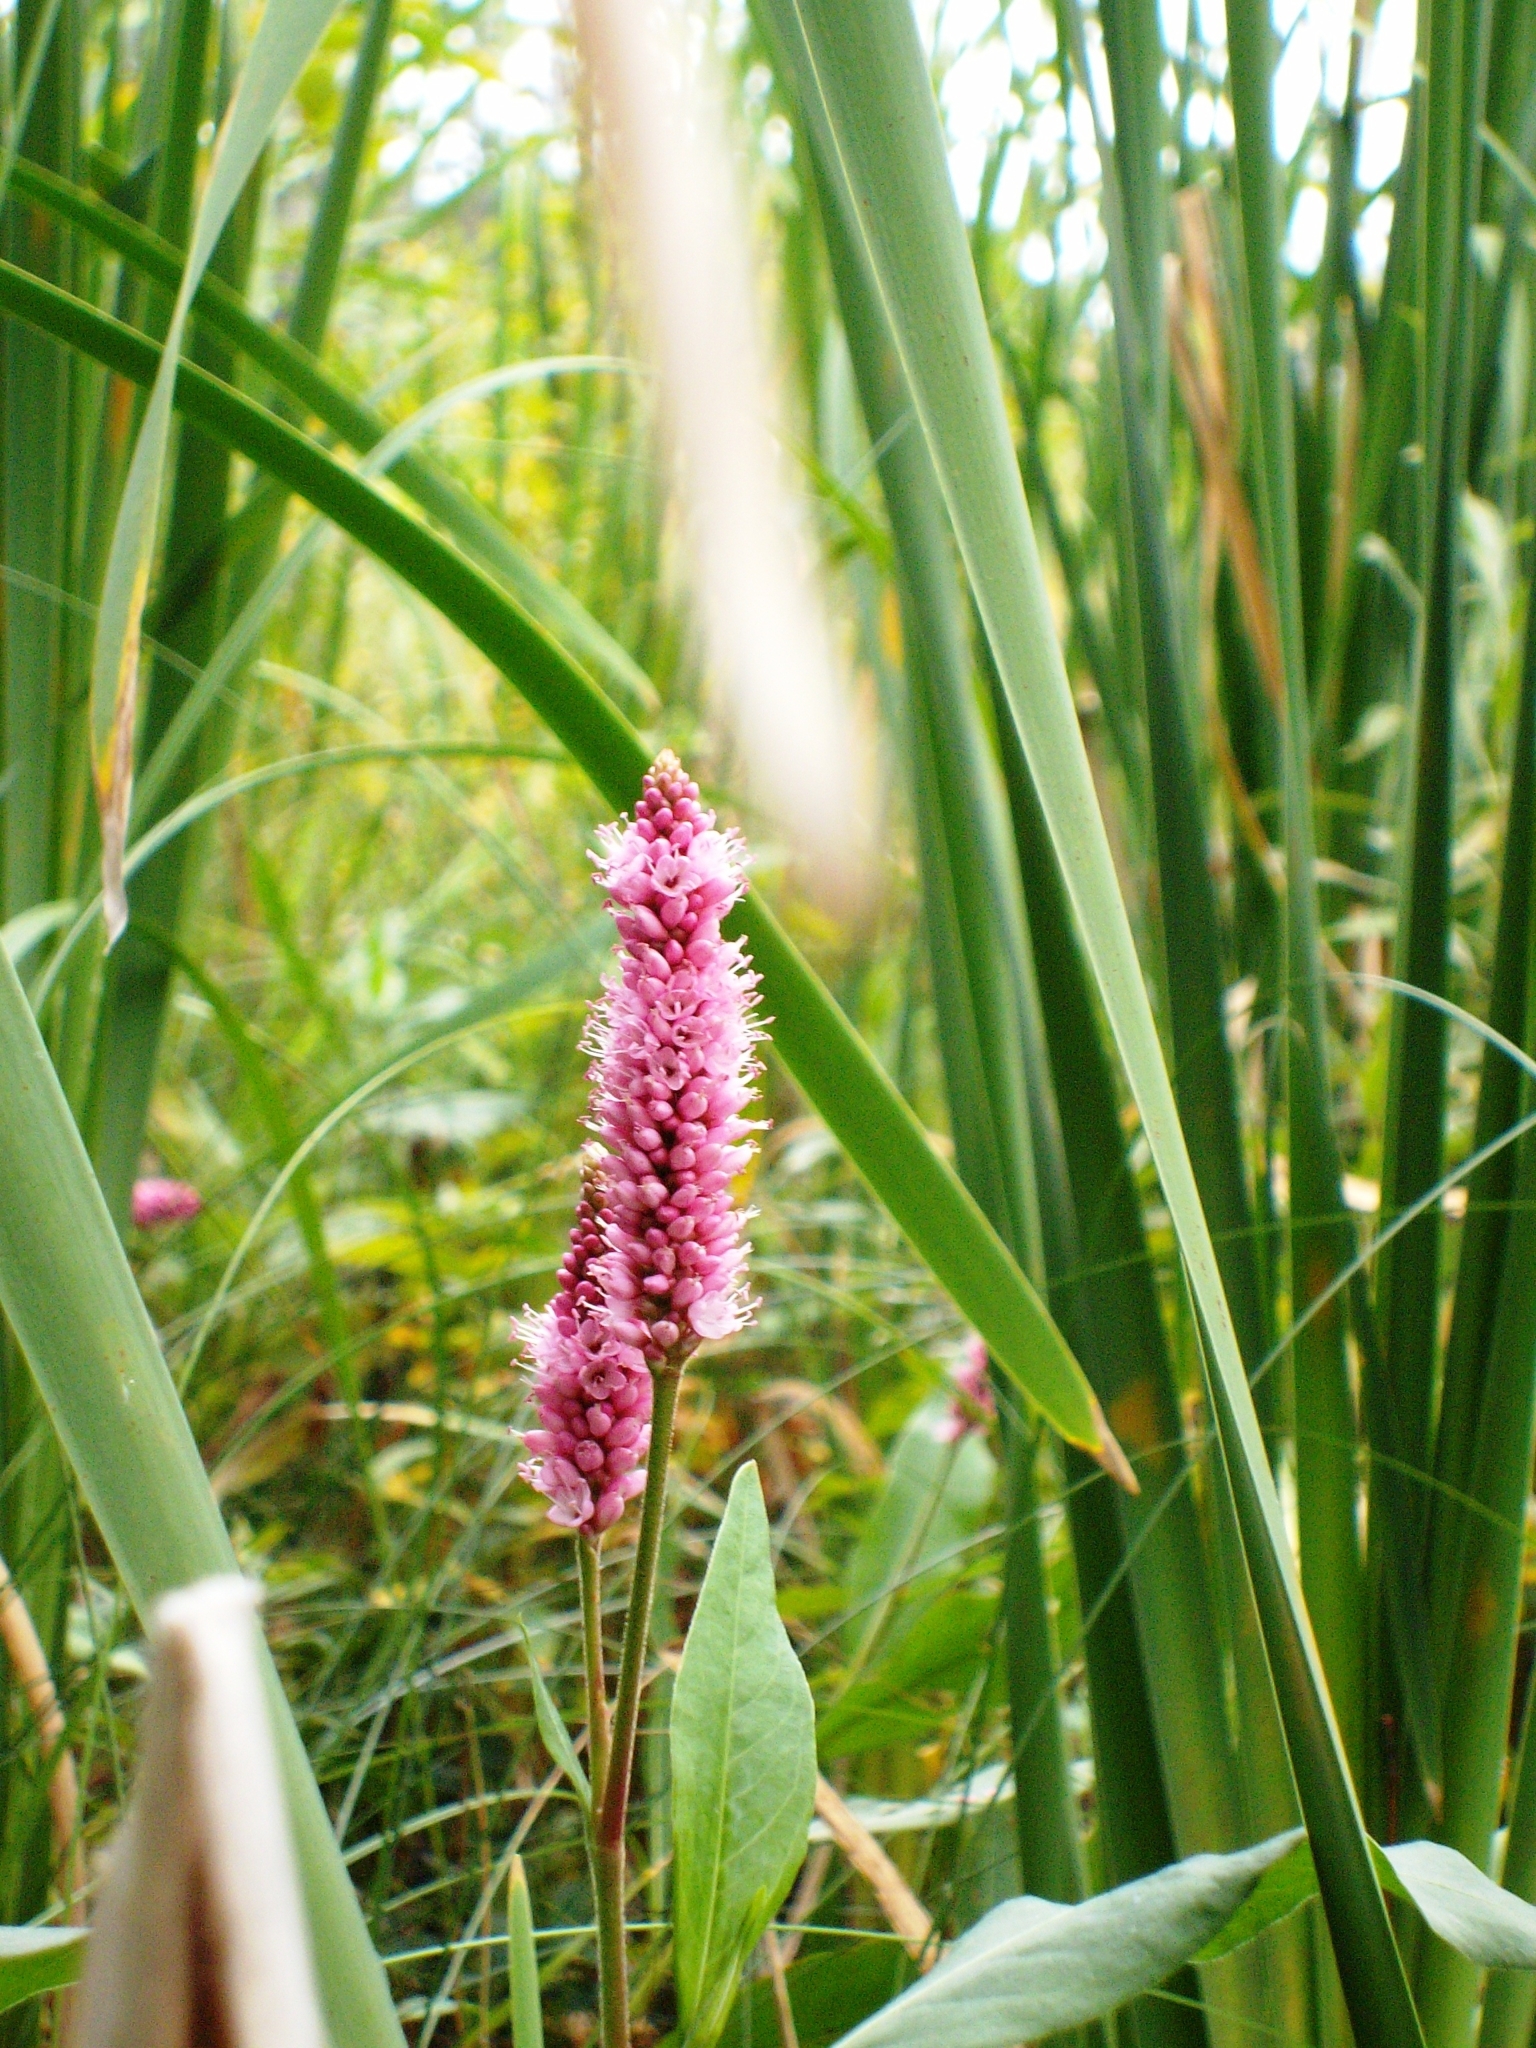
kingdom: Plantae
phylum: Tracheophyta
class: Magnoliopsida
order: Caryophyllales
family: Polygonaceae
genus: Persicaria
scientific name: Persicaria amphibia
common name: Amphibious bistort
